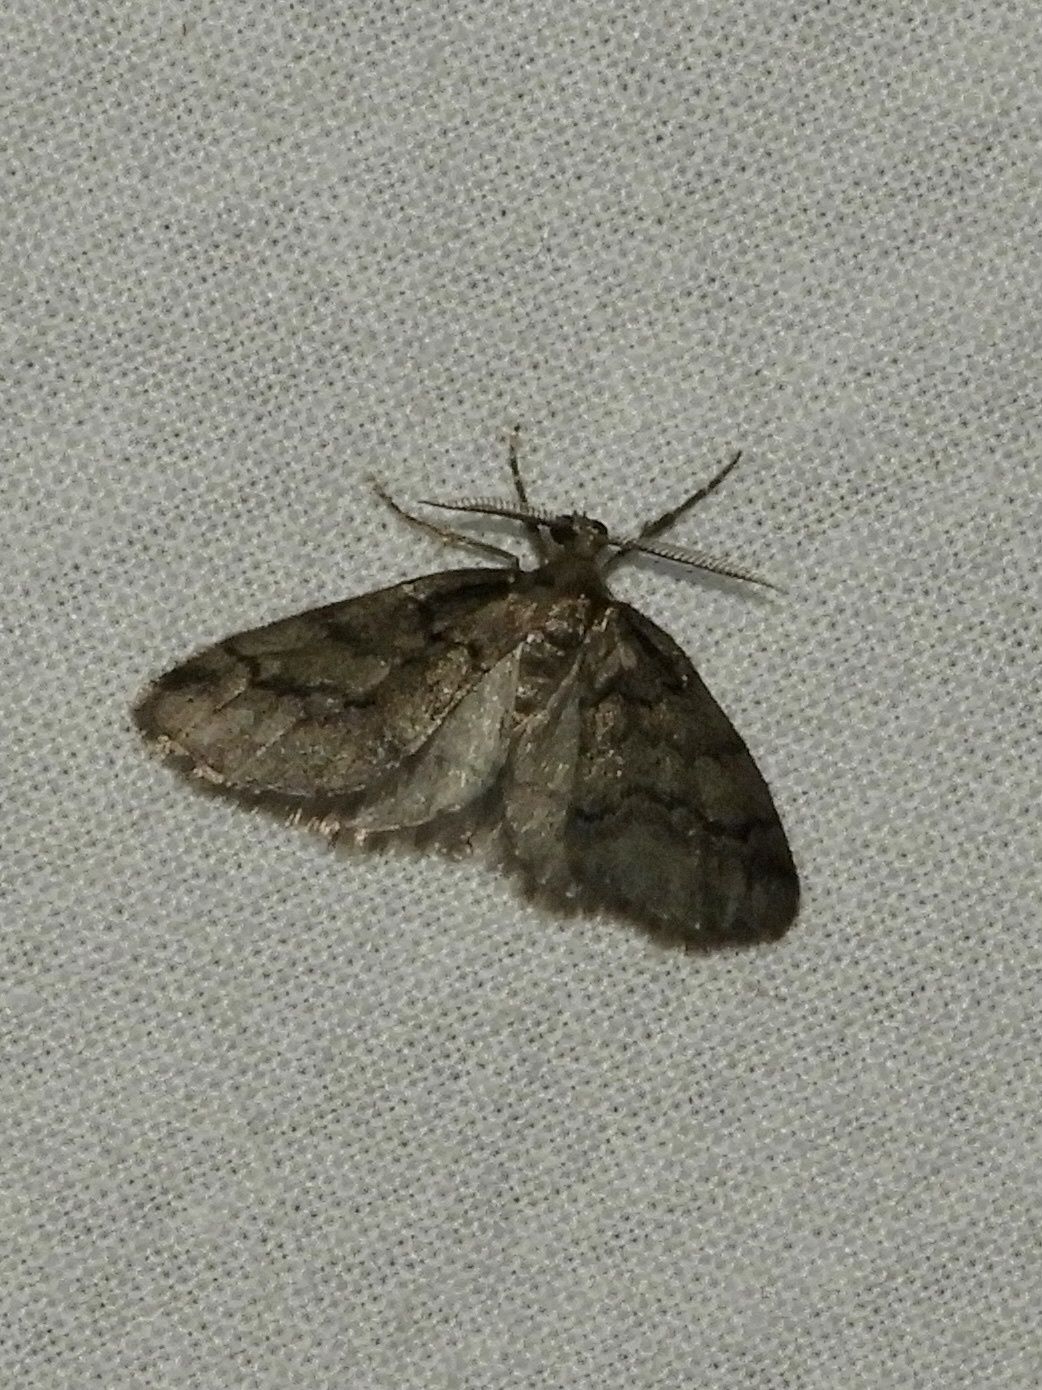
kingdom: Animalia
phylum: Arthropoda
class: Insecta
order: Lepidoptera
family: Geometridae
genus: Tephronia
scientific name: Tephronia sepiaria
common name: Dusky carpet
